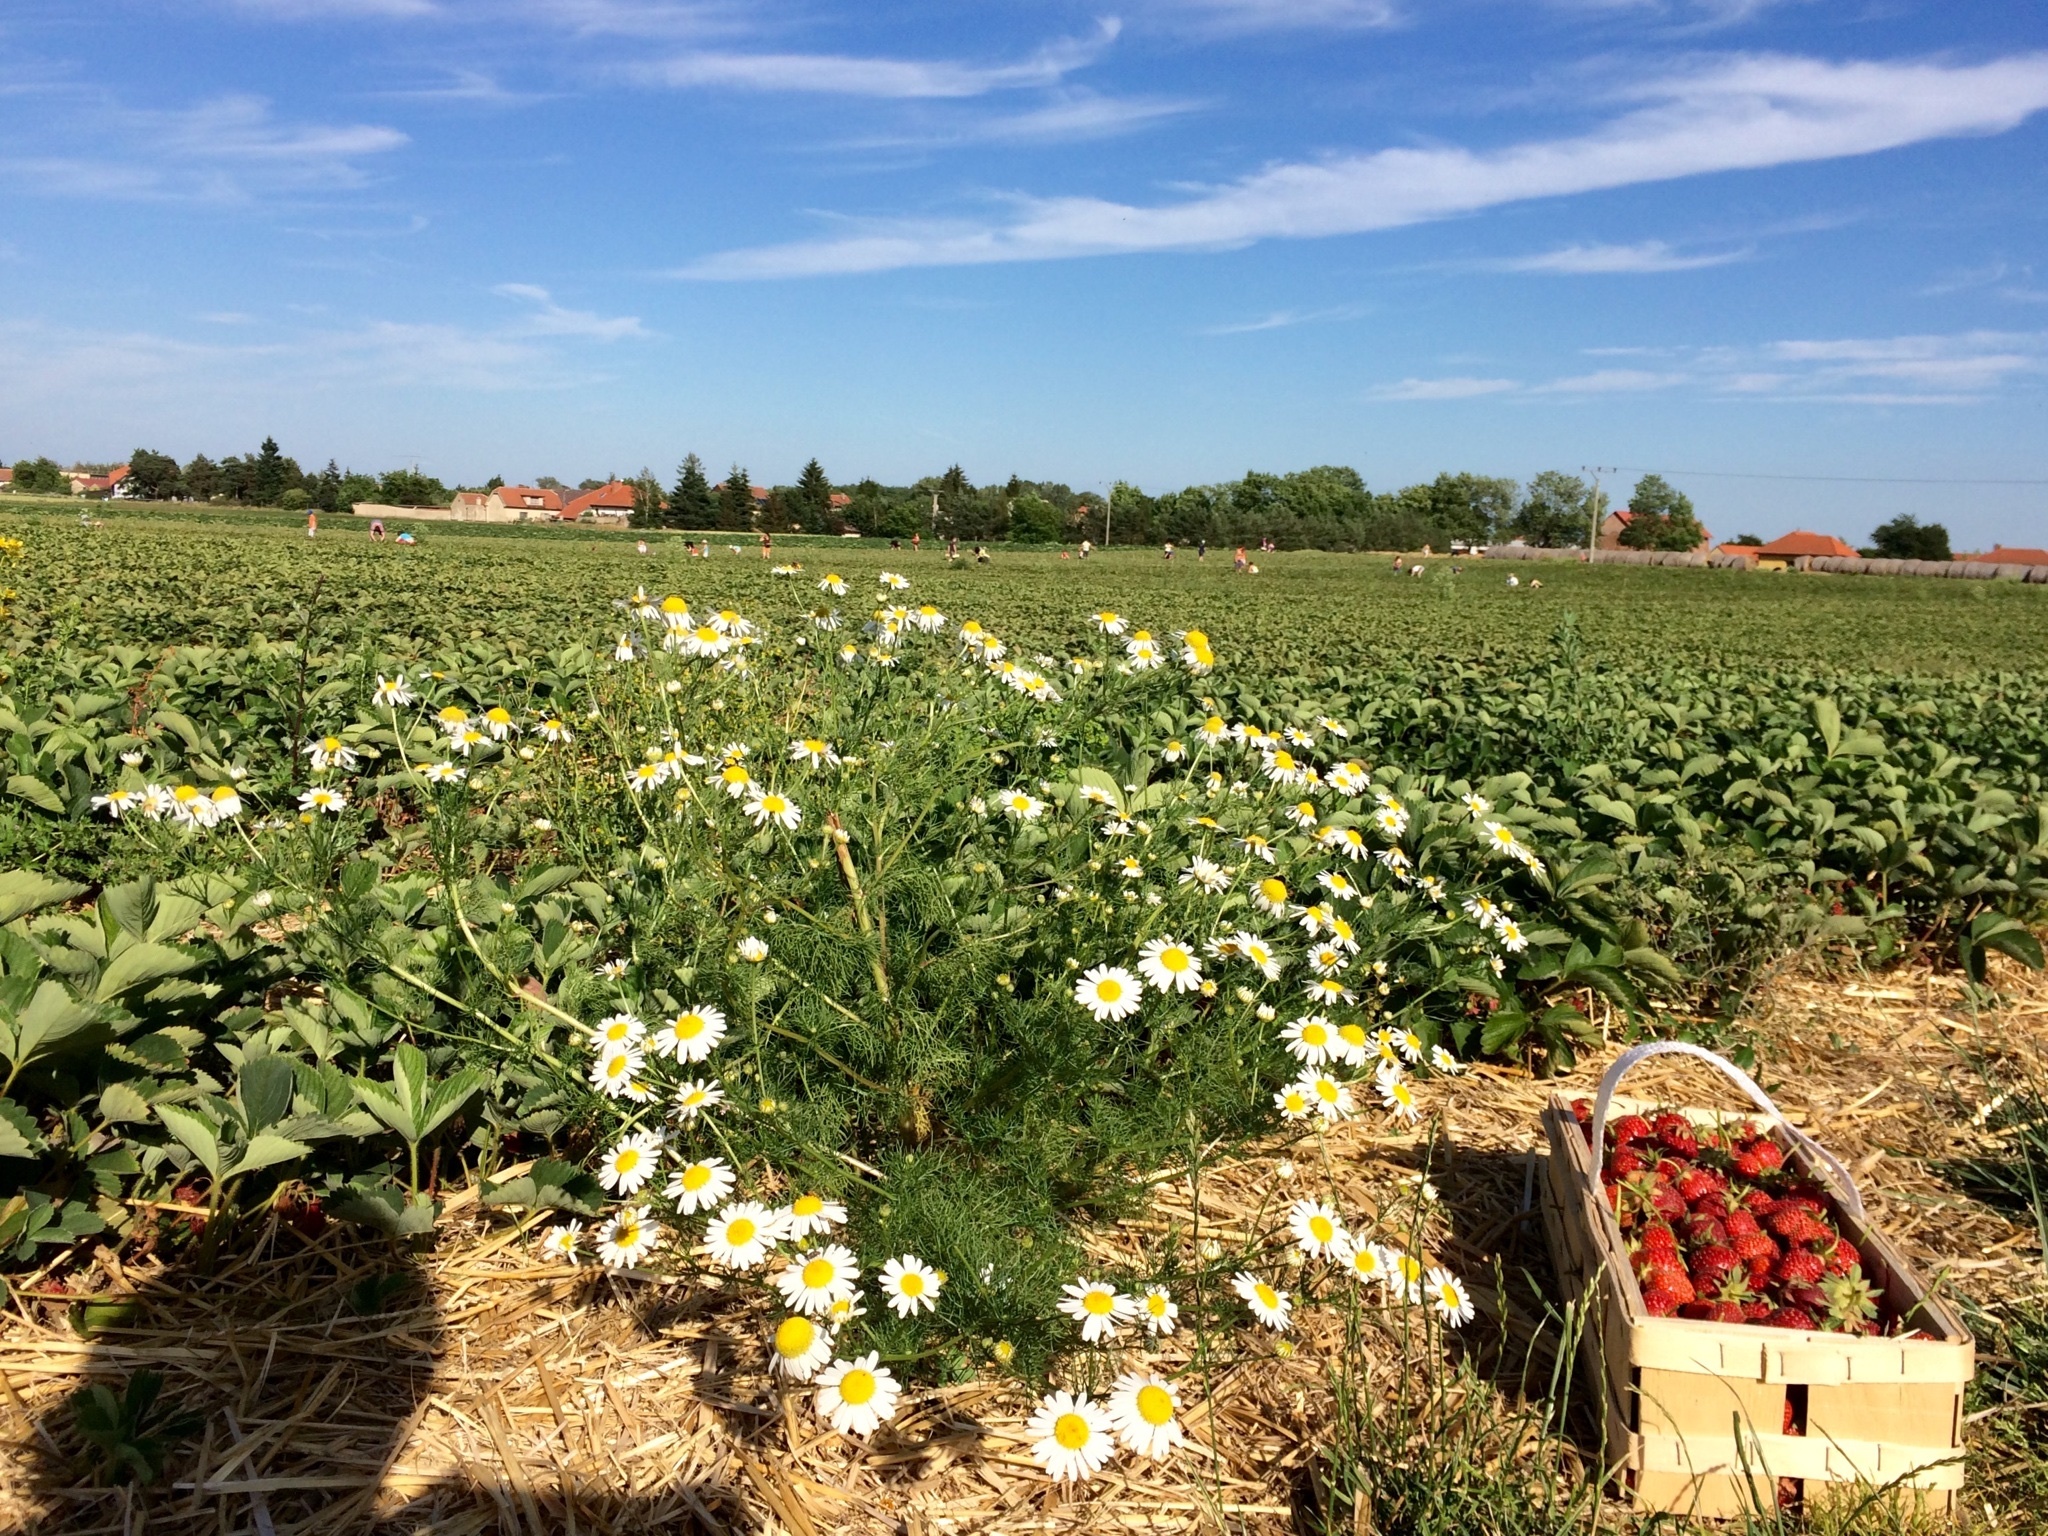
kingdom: Plantae
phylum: Tracheophyta
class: Magnoliopsida
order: Asterales
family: Asteraceae
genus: Tripleurospermum
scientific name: Tripleurospermum inodorum
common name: Scentless mayweed
